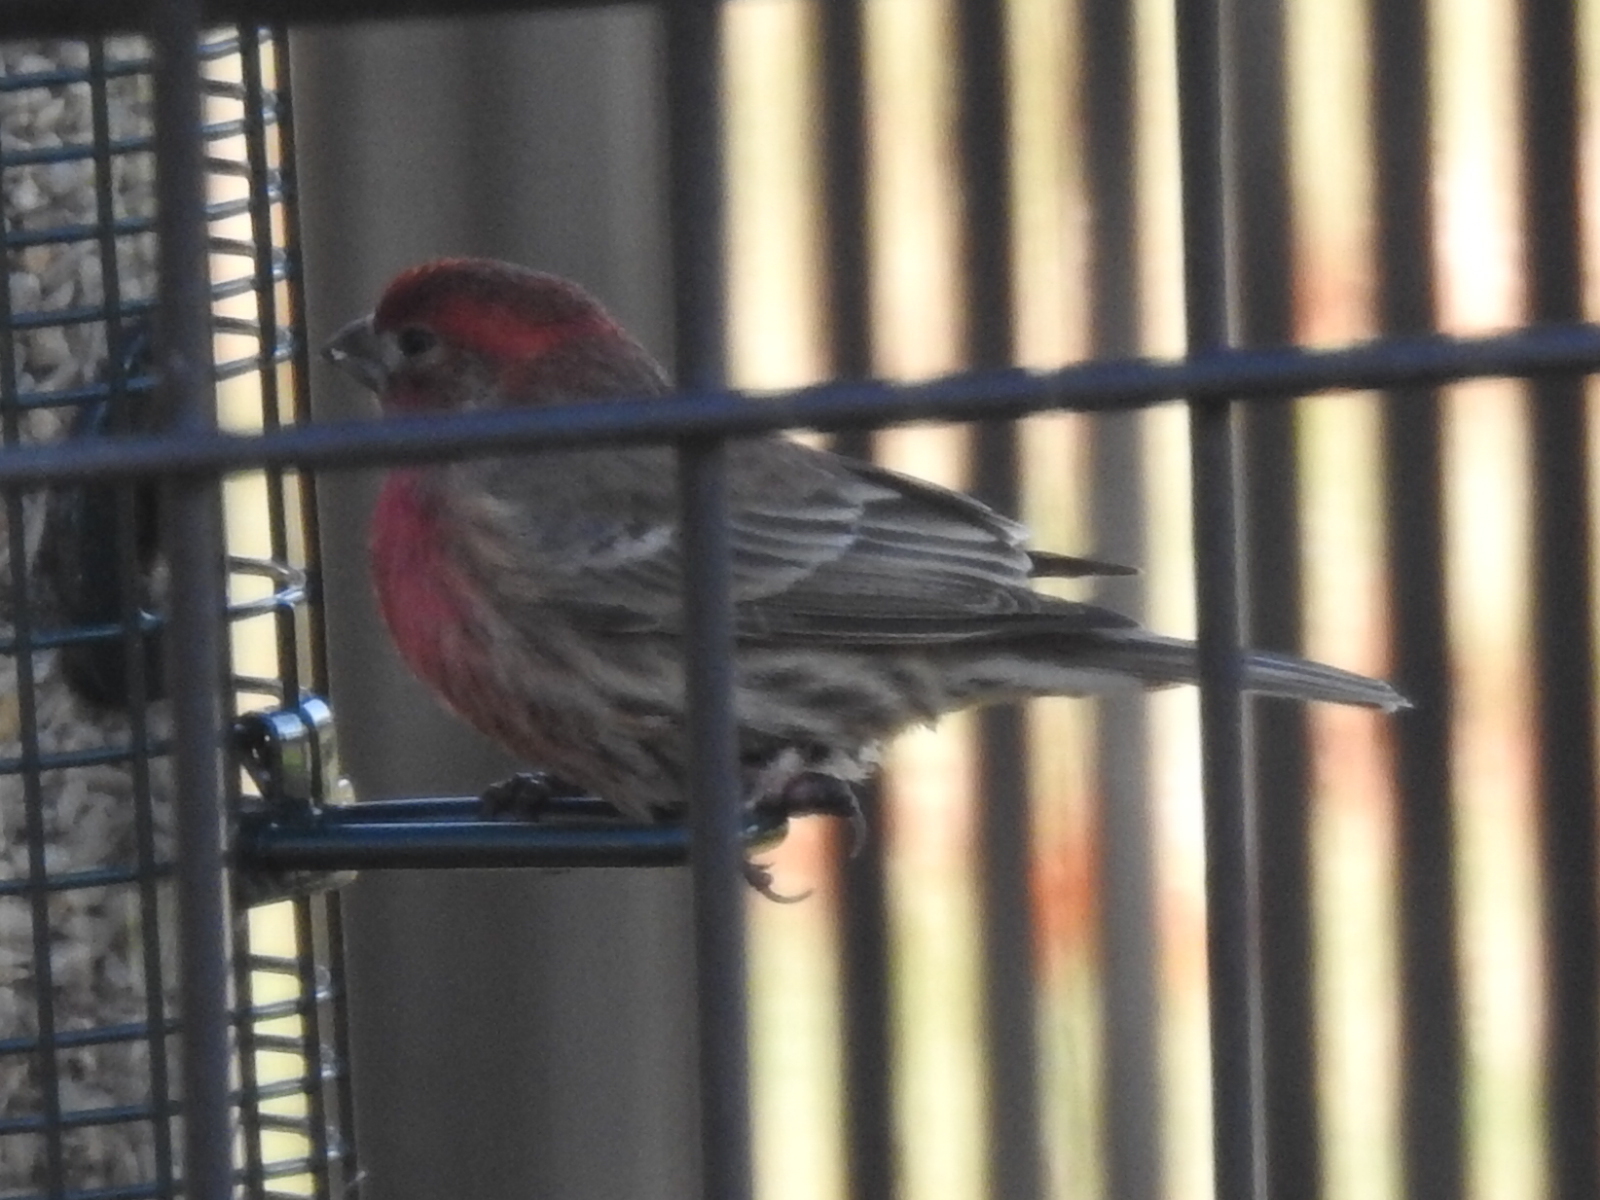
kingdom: Animalia
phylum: Chordata
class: Aves
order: Passeriformes
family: Fringillidae
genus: Haemorhous
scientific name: Haemorhous mexicanus
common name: House finch
